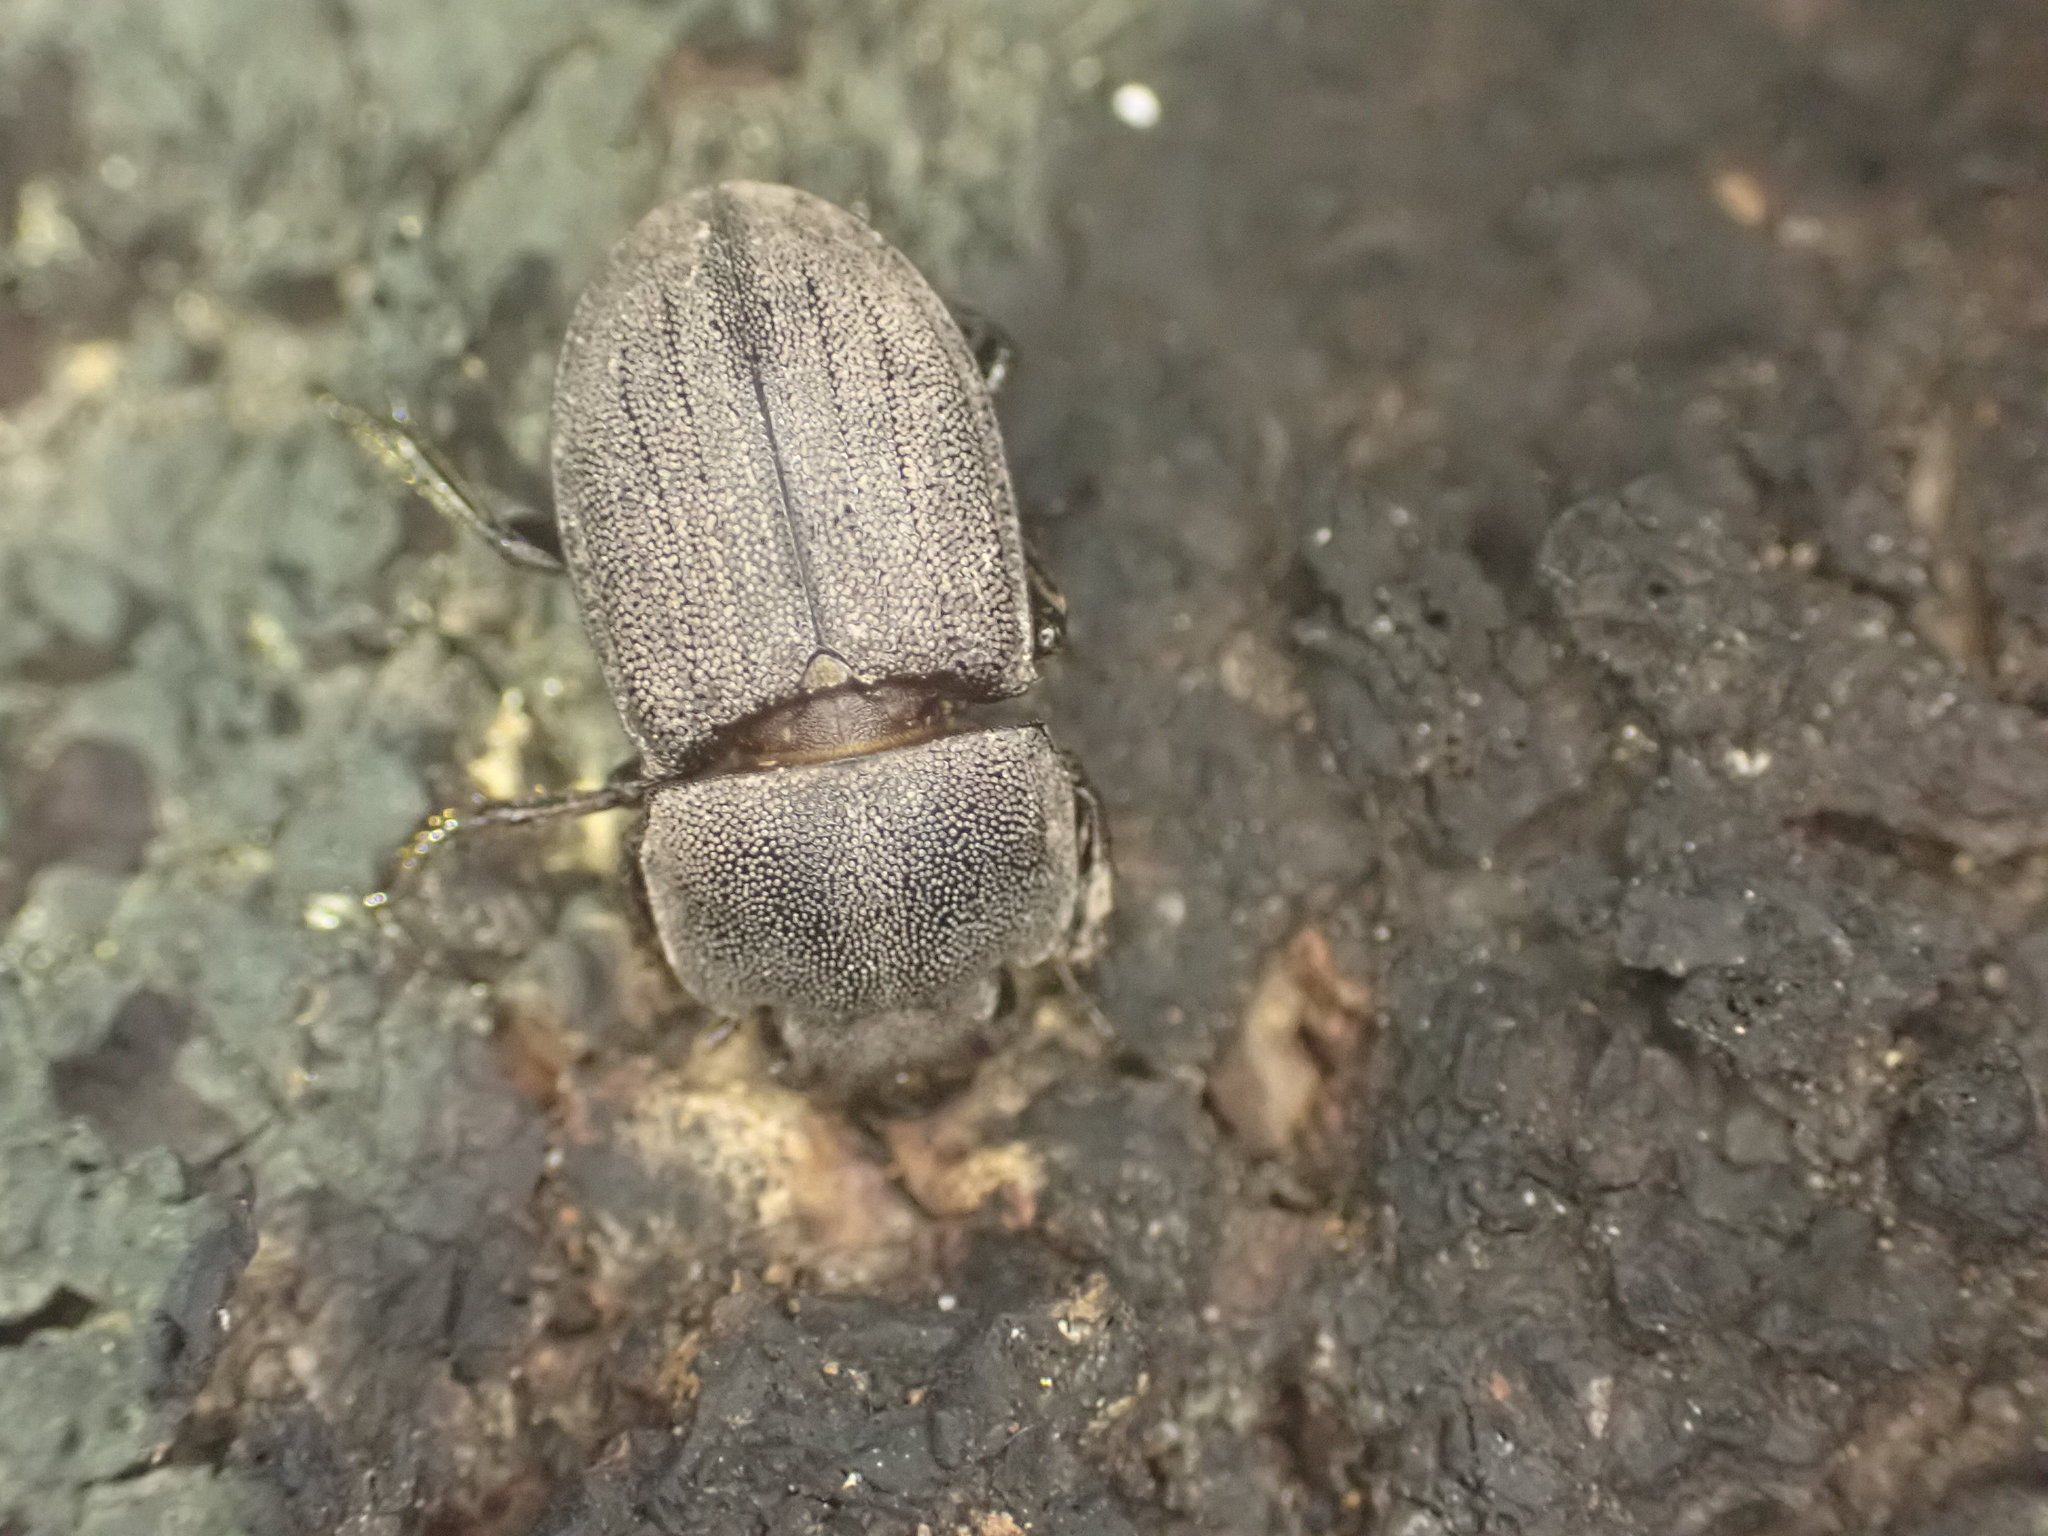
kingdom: Animalia
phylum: Arthropoda
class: Insecta
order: Coleoptera
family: Lucanidae
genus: Geodorcus
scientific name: Geodorcus novaezealandiae
